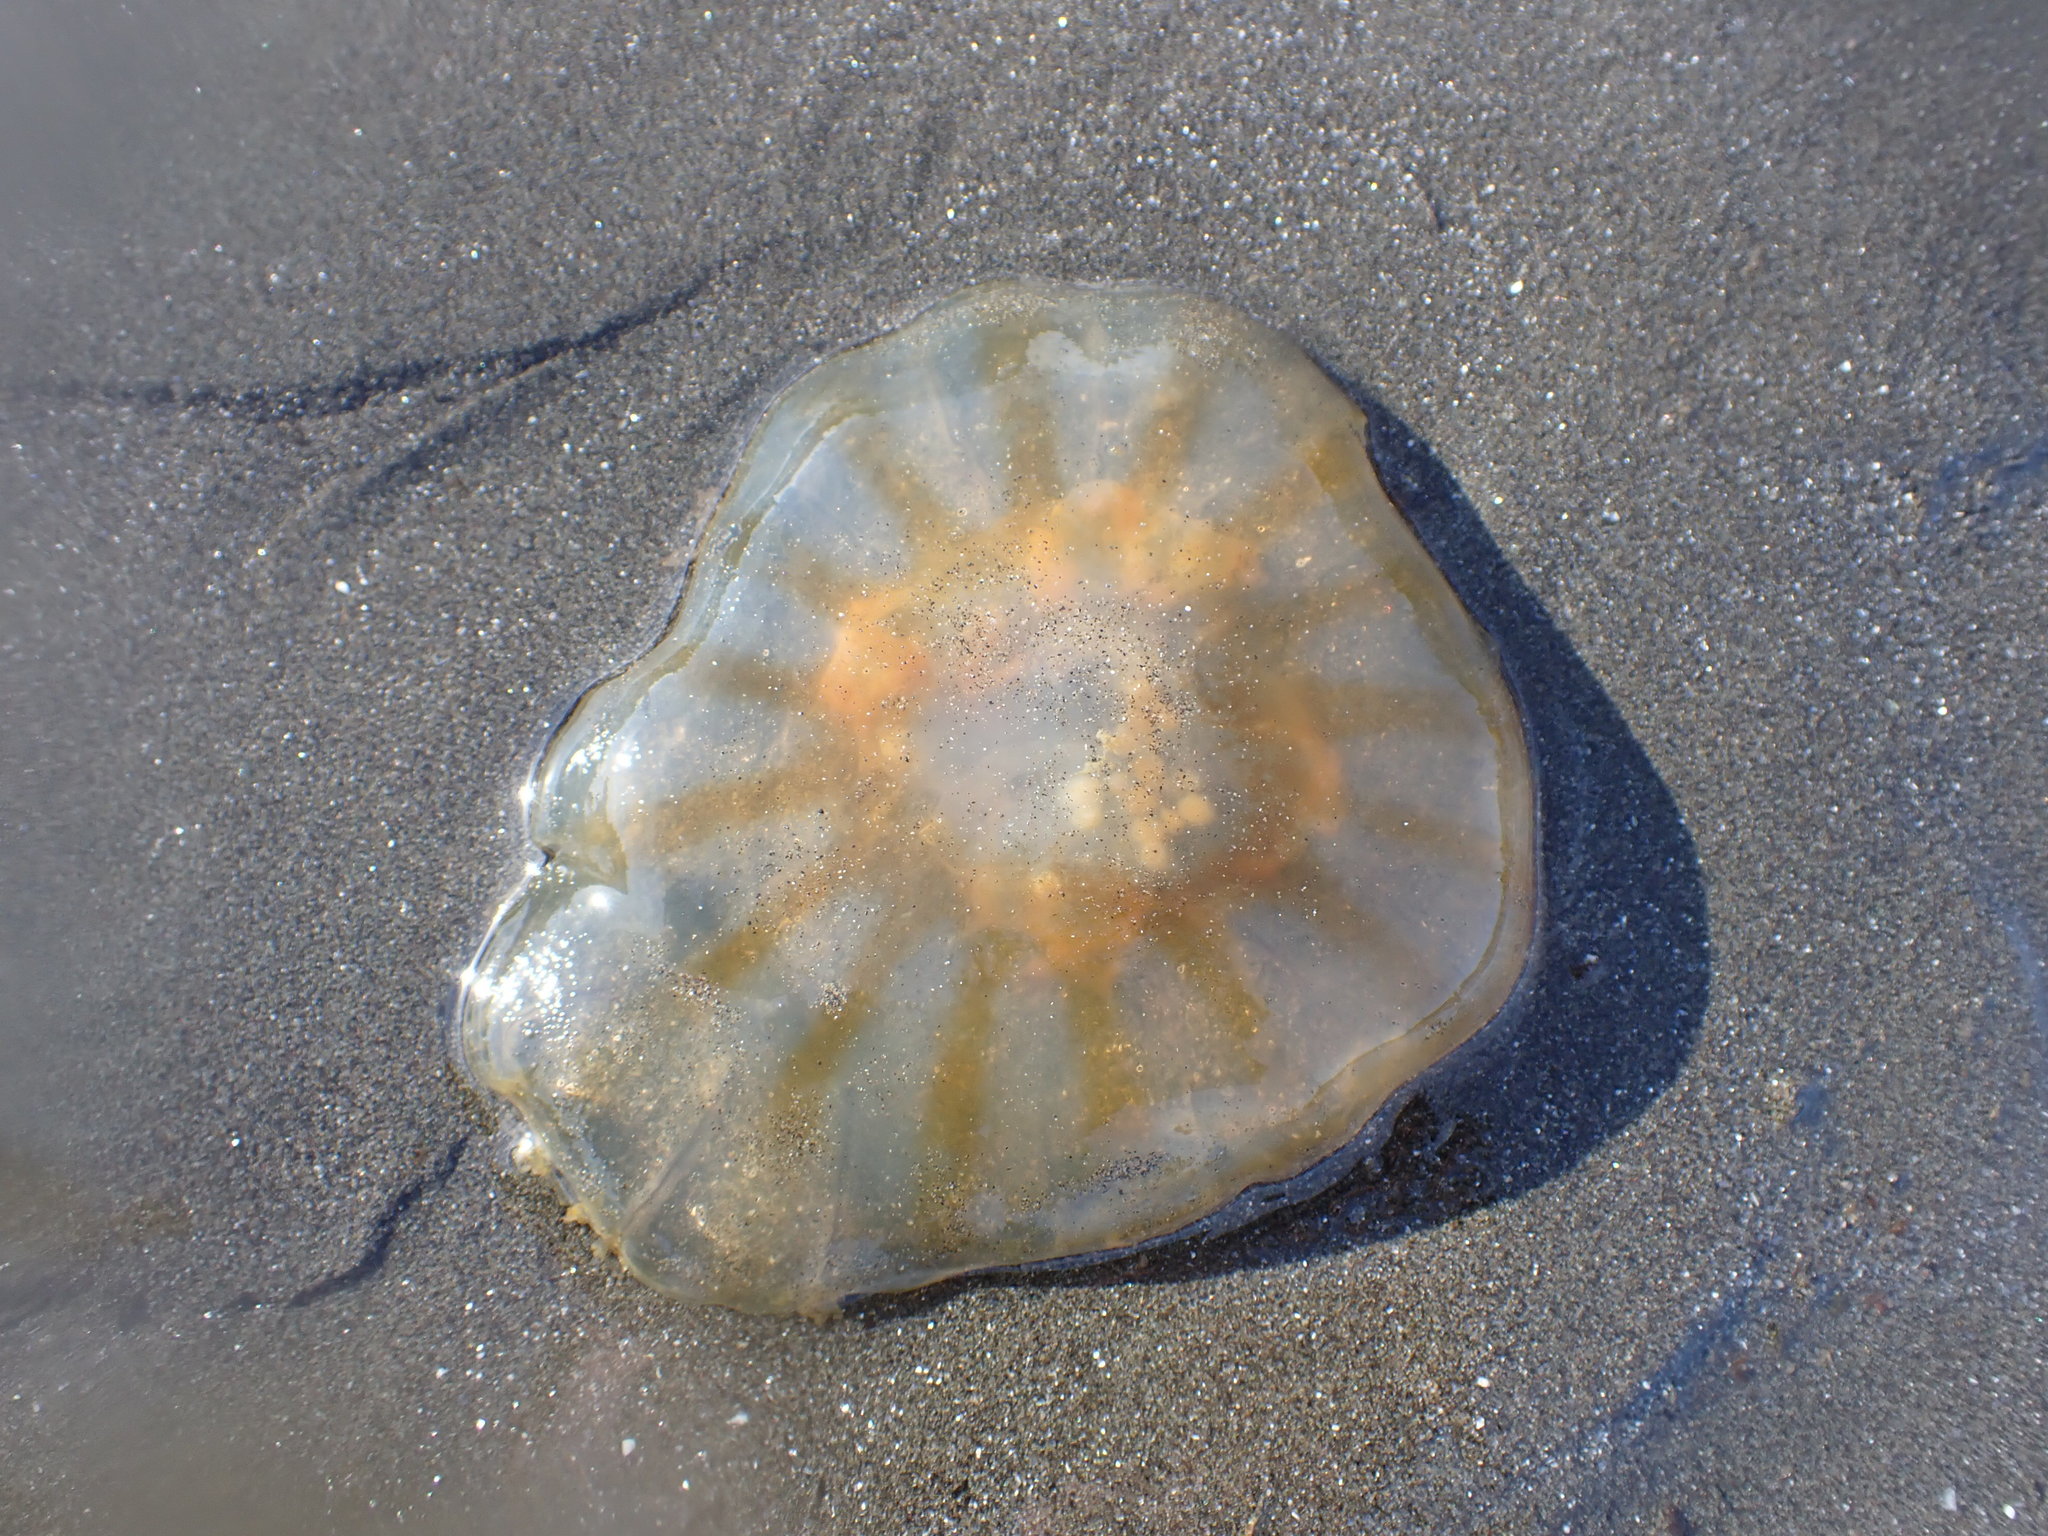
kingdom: Animalia
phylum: Cnidaria
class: Scyphozoa
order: Semaeostomeae
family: Pelagiidae
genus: Chrysaora
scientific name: Chrysaora melanaster
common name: Northern sea nettle
